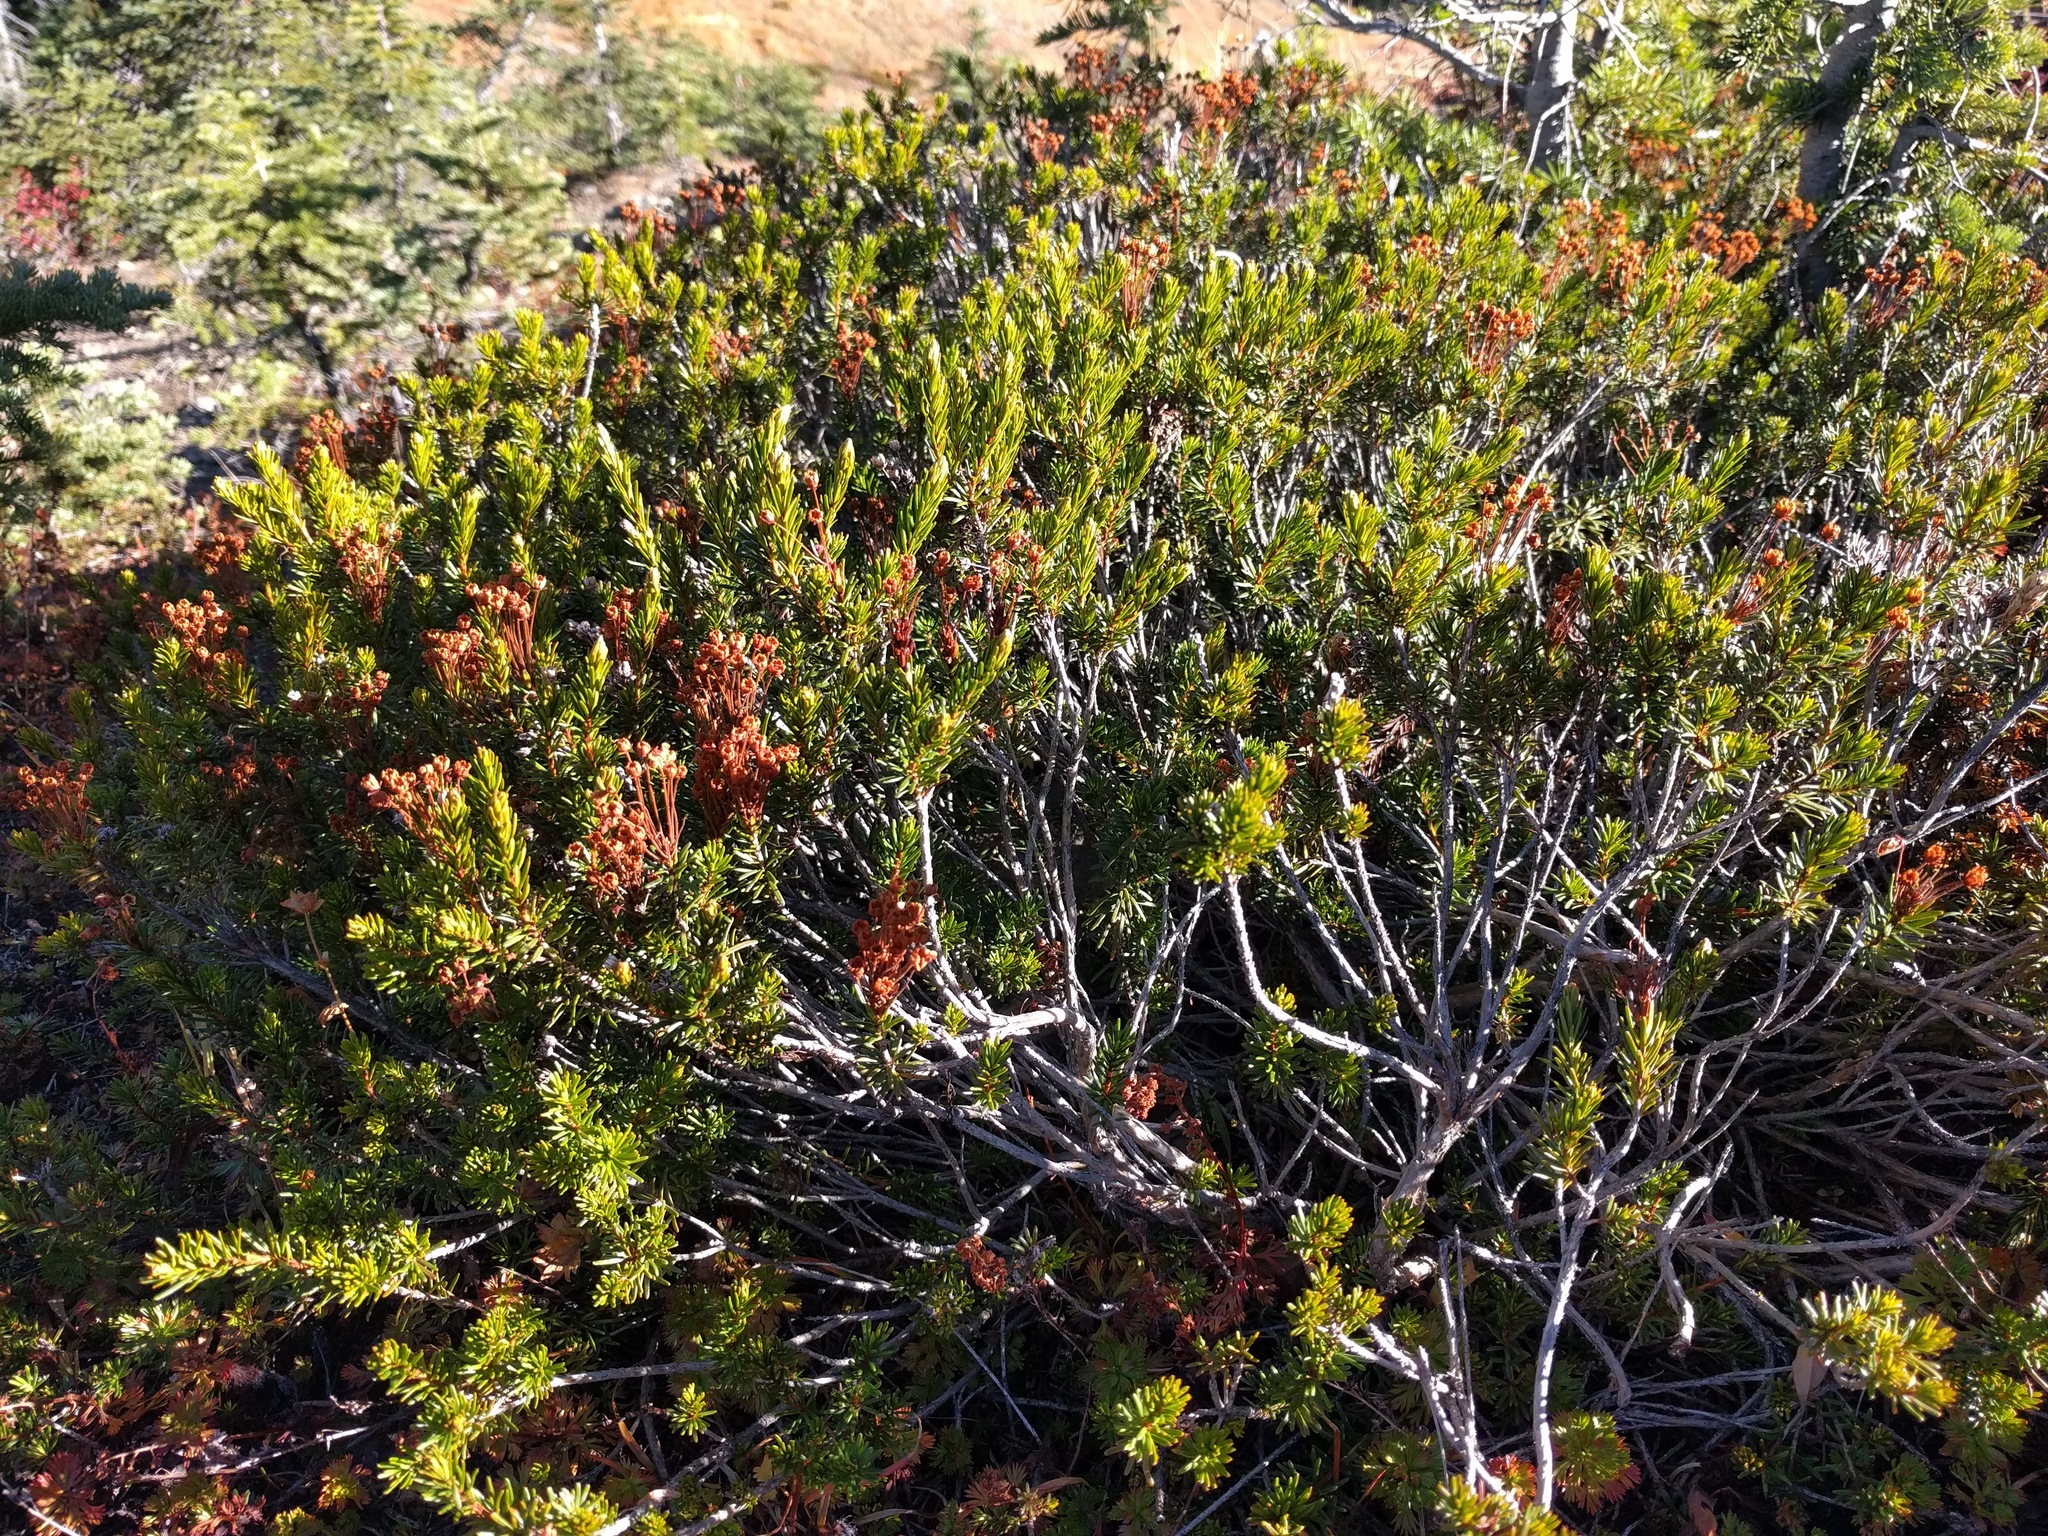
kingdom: Plantae
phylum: Tracheophyta
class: Magnoliopsida
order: Ericales
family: Ericaceae
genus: Phyllodoce
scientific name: Phyllodoce empetriformis
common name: Pink mountain heather
